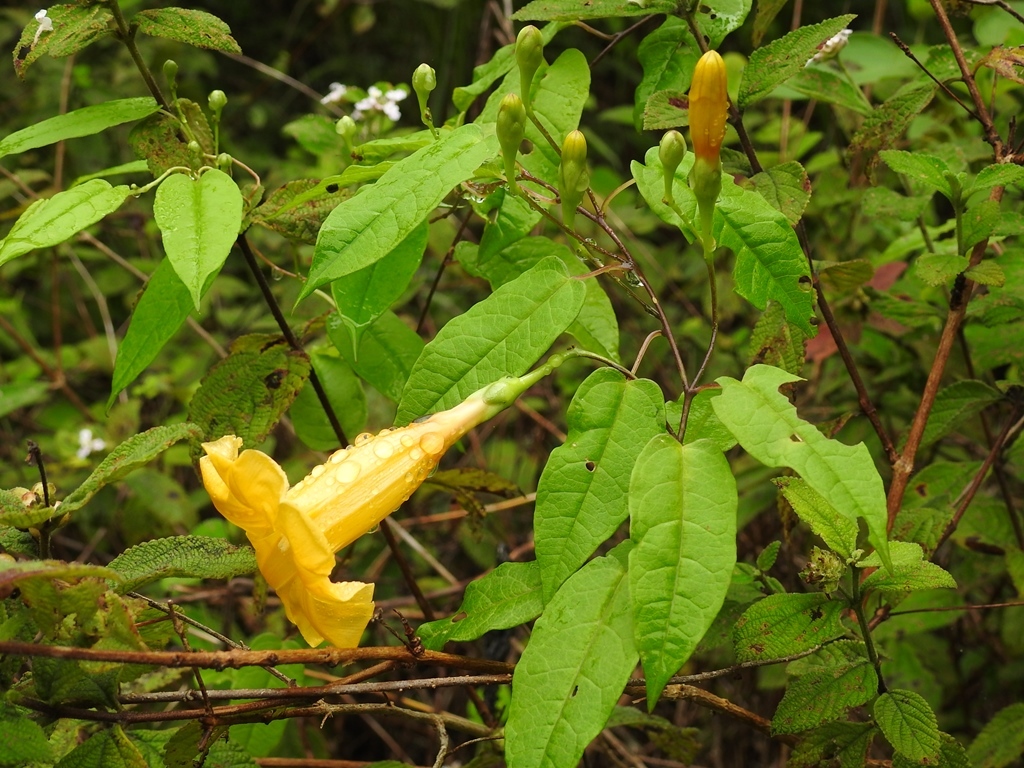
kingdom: Plantae
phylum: Tracheophyta
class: Magnoliopsida
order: Solanales
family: Convolvulaceae
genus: Ipomoea
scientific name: Ipomoea aurantiaca
